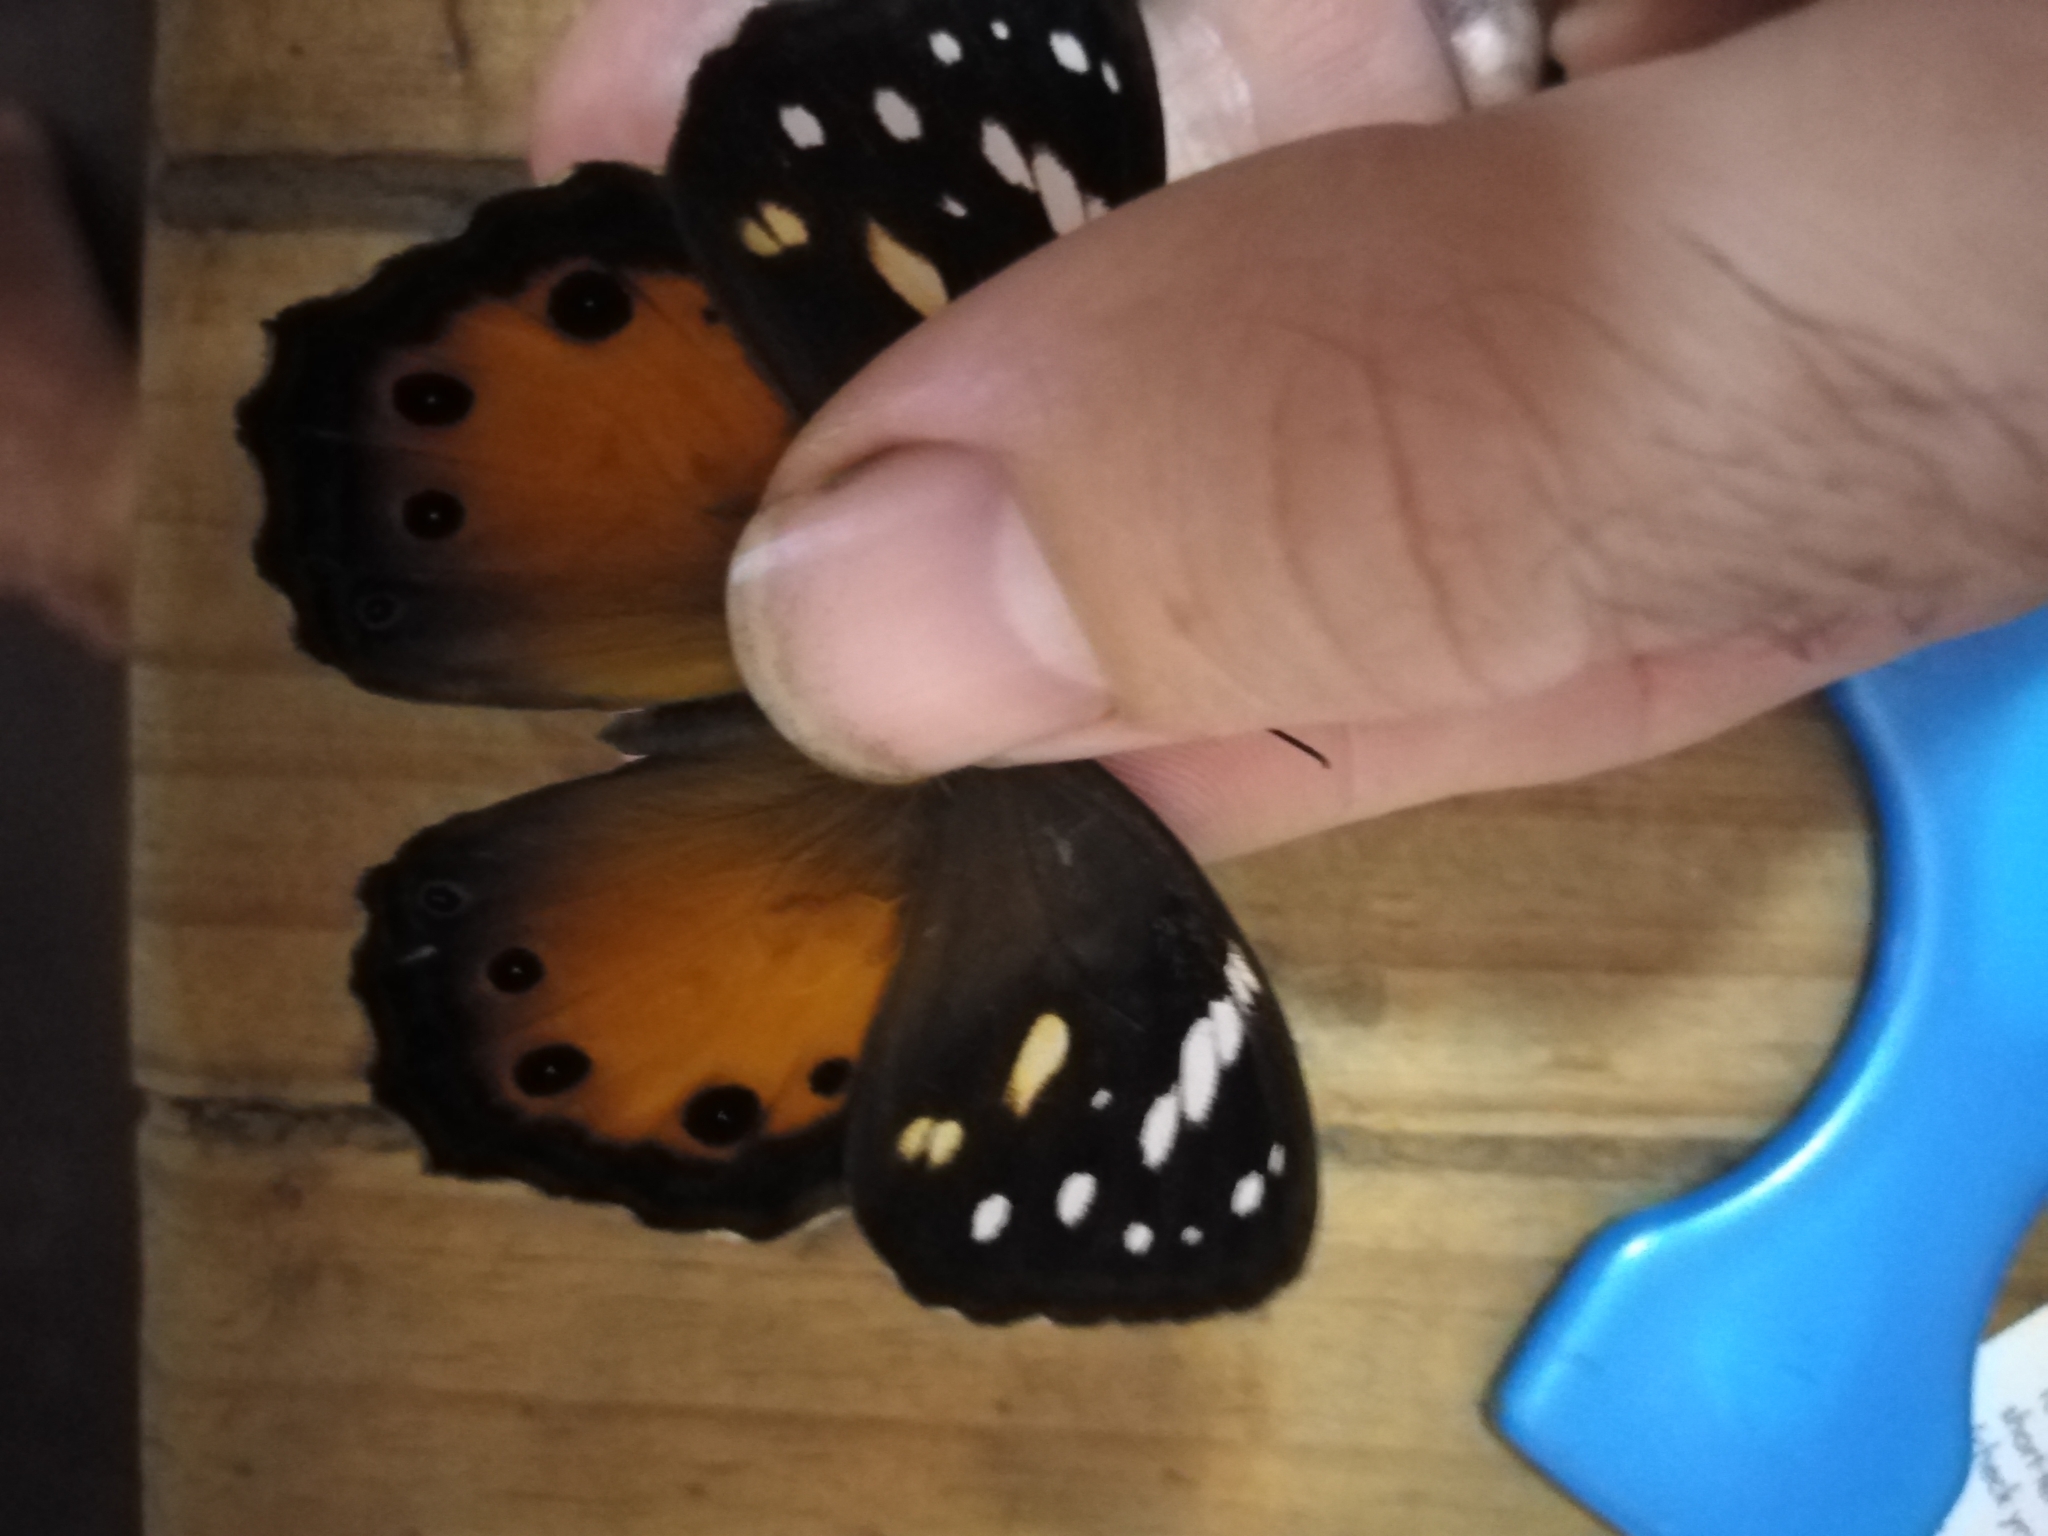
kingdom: Animalia
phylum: Arthropoda
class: Insecta
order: Lepidoptera
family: Nymphalidae
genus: Paralethe
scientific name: Paralethe dendrophilus
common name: Bush beauty
